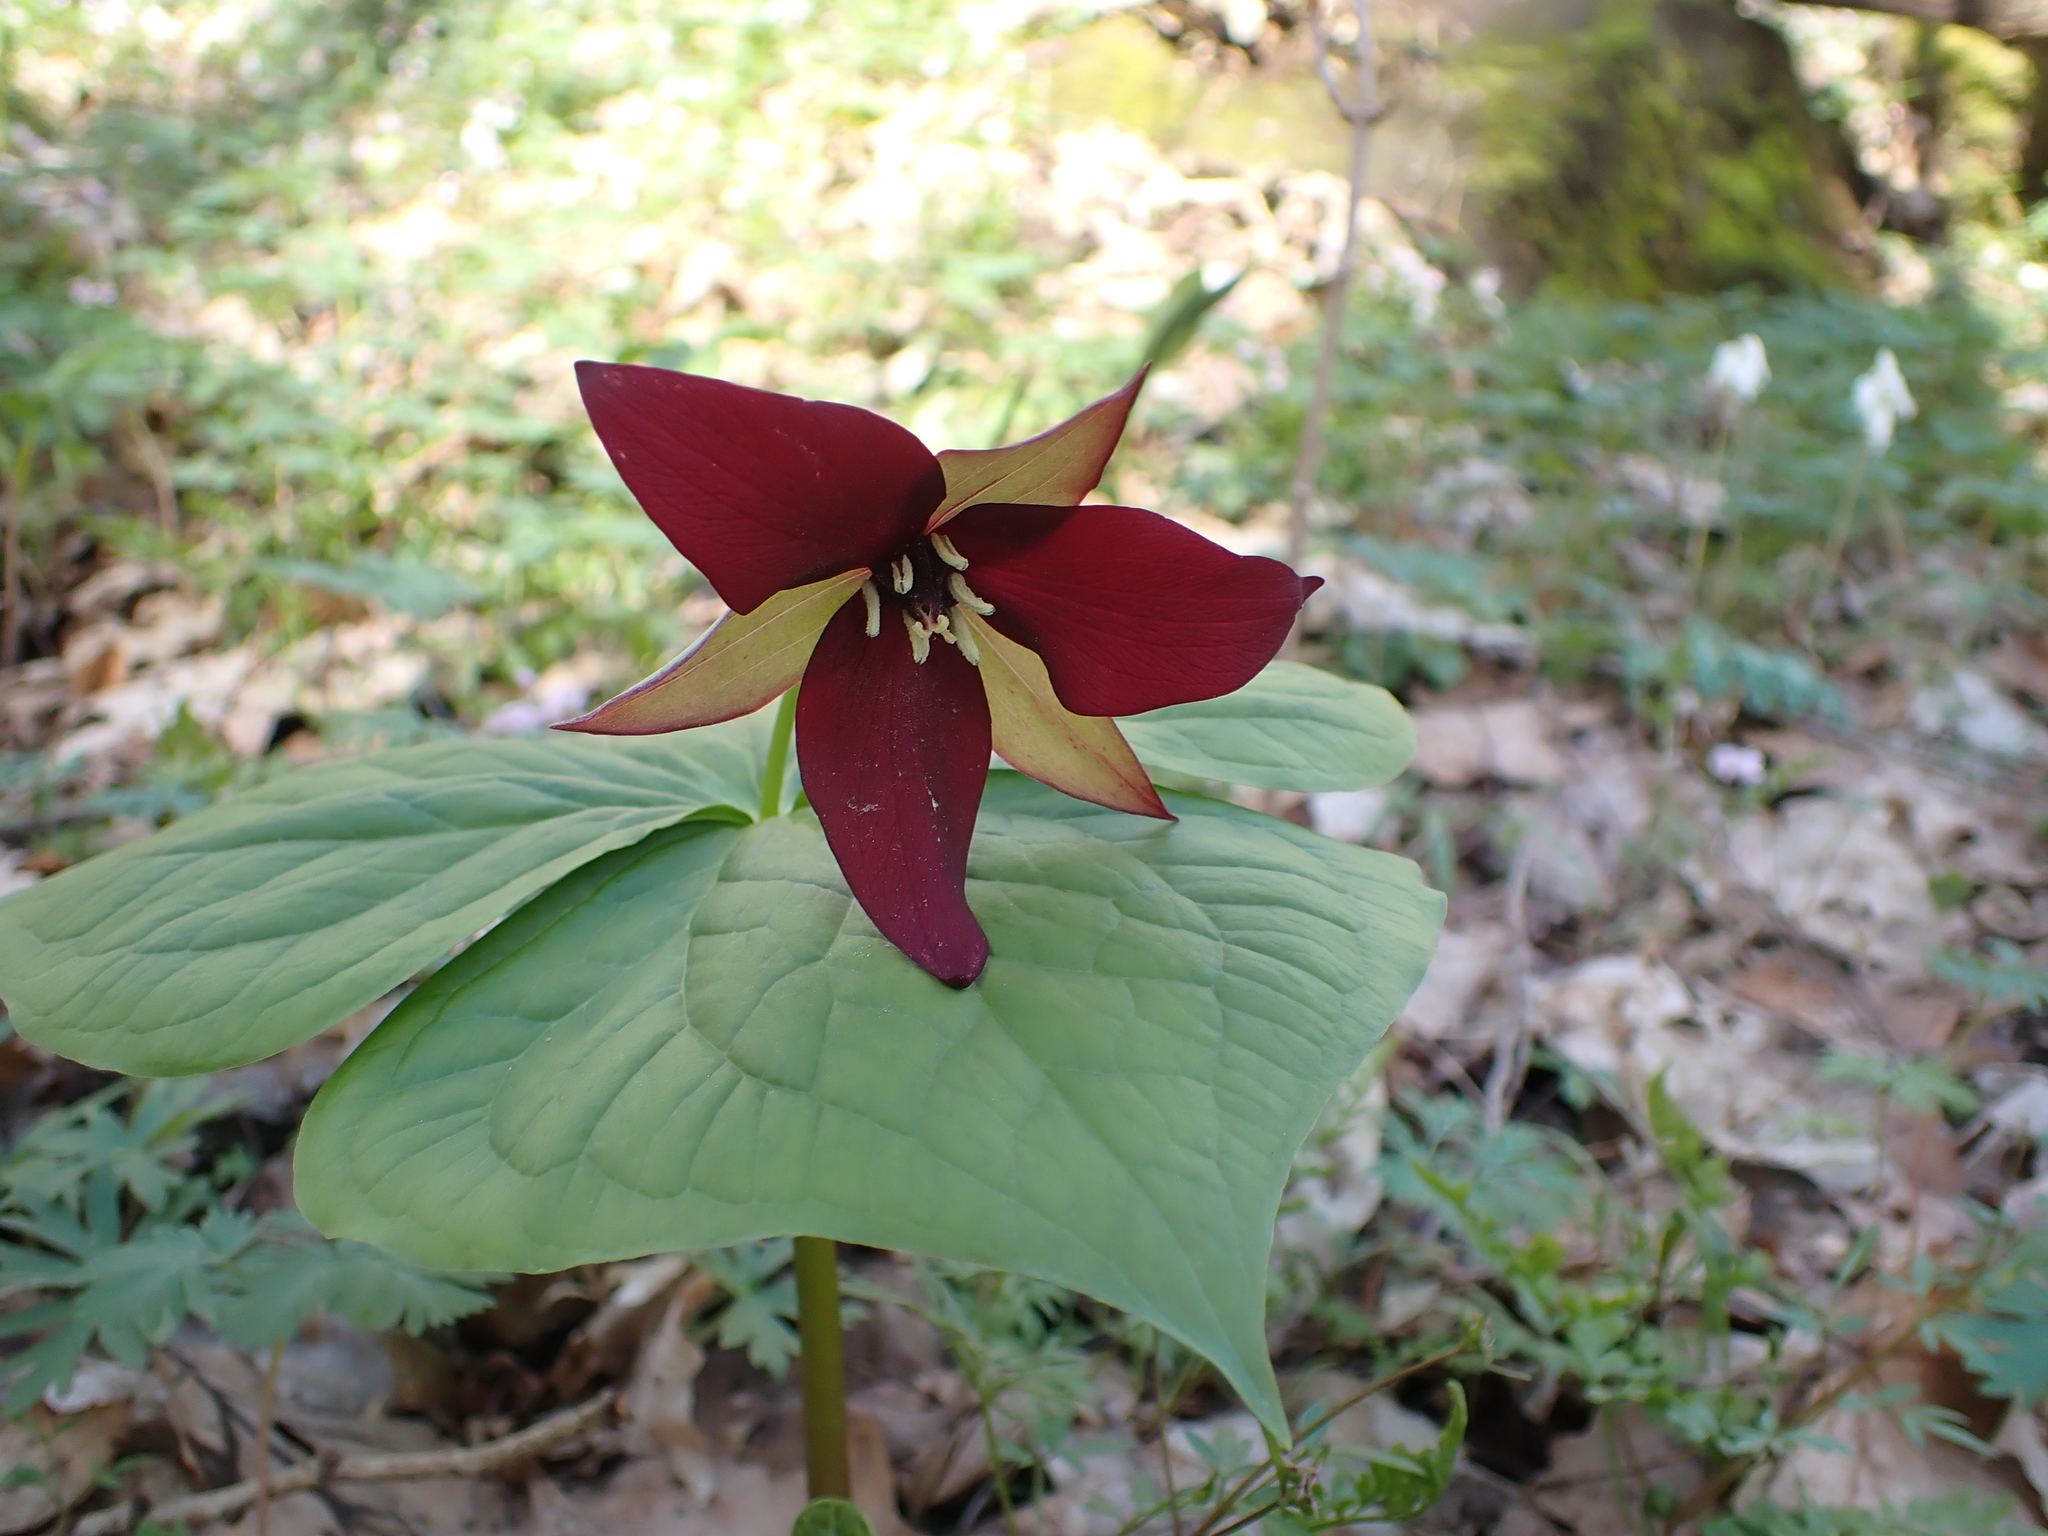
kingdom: Plantae
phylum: Tracheophyta
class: Liliopsida
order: Liliales
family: Melanthiaceae
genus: Trillium
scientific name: Trillium erectum
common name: Purple trillium
